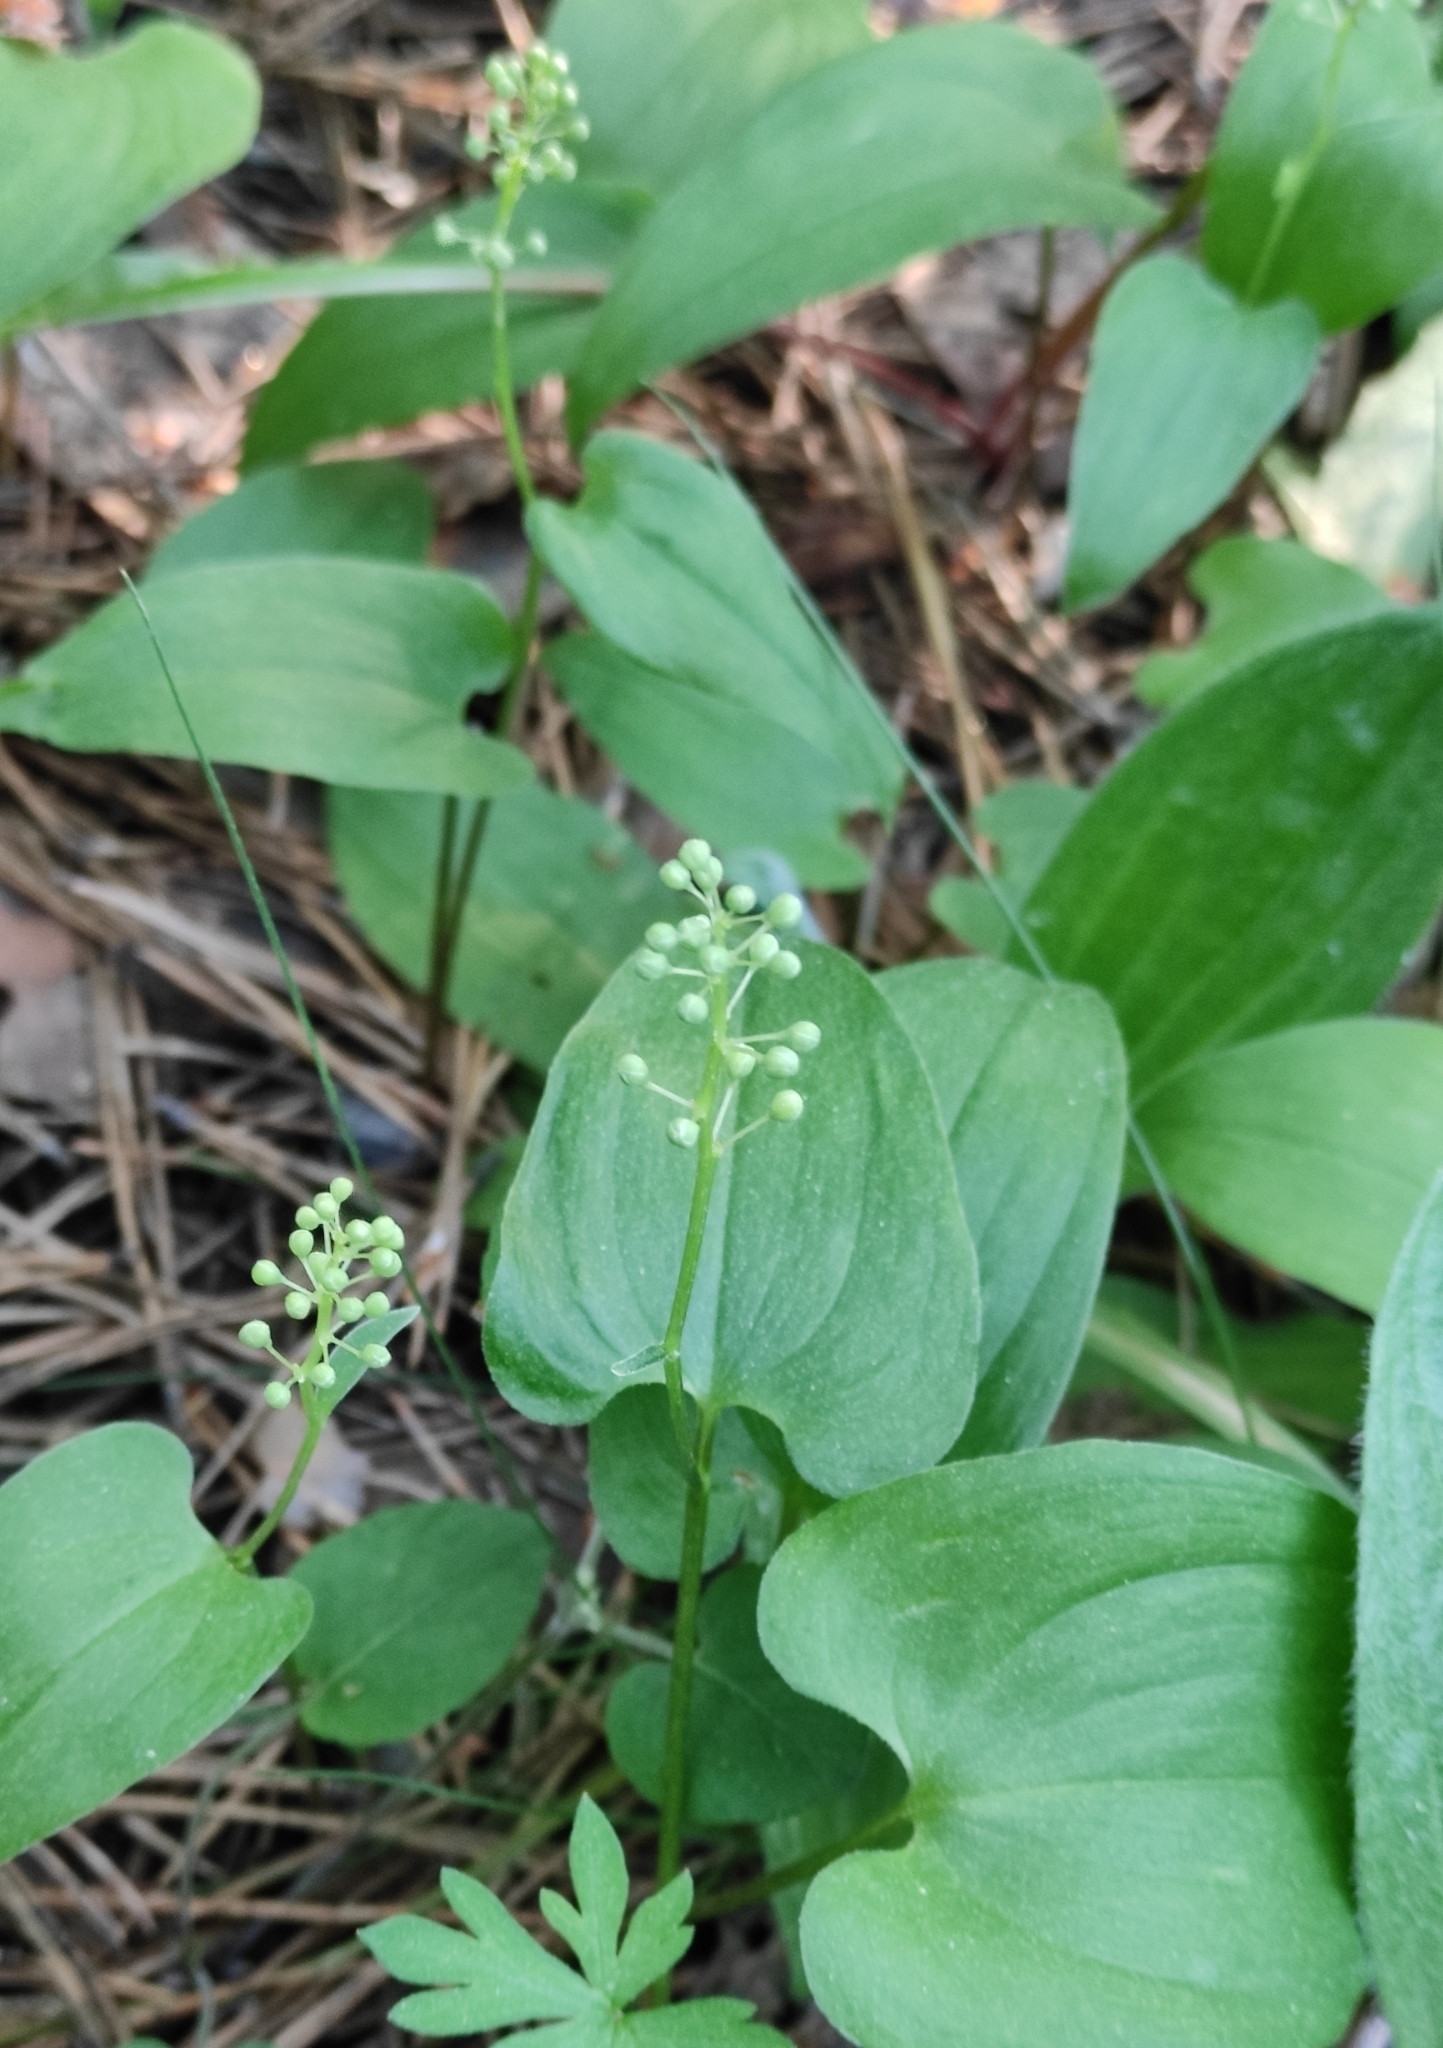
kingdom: Plantae
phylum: Tracheophyta
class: Liliopsida
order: Asparagales
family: Asparagaceae
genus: Maianthemum
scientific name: Maianthemum bifolium
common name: May lily
